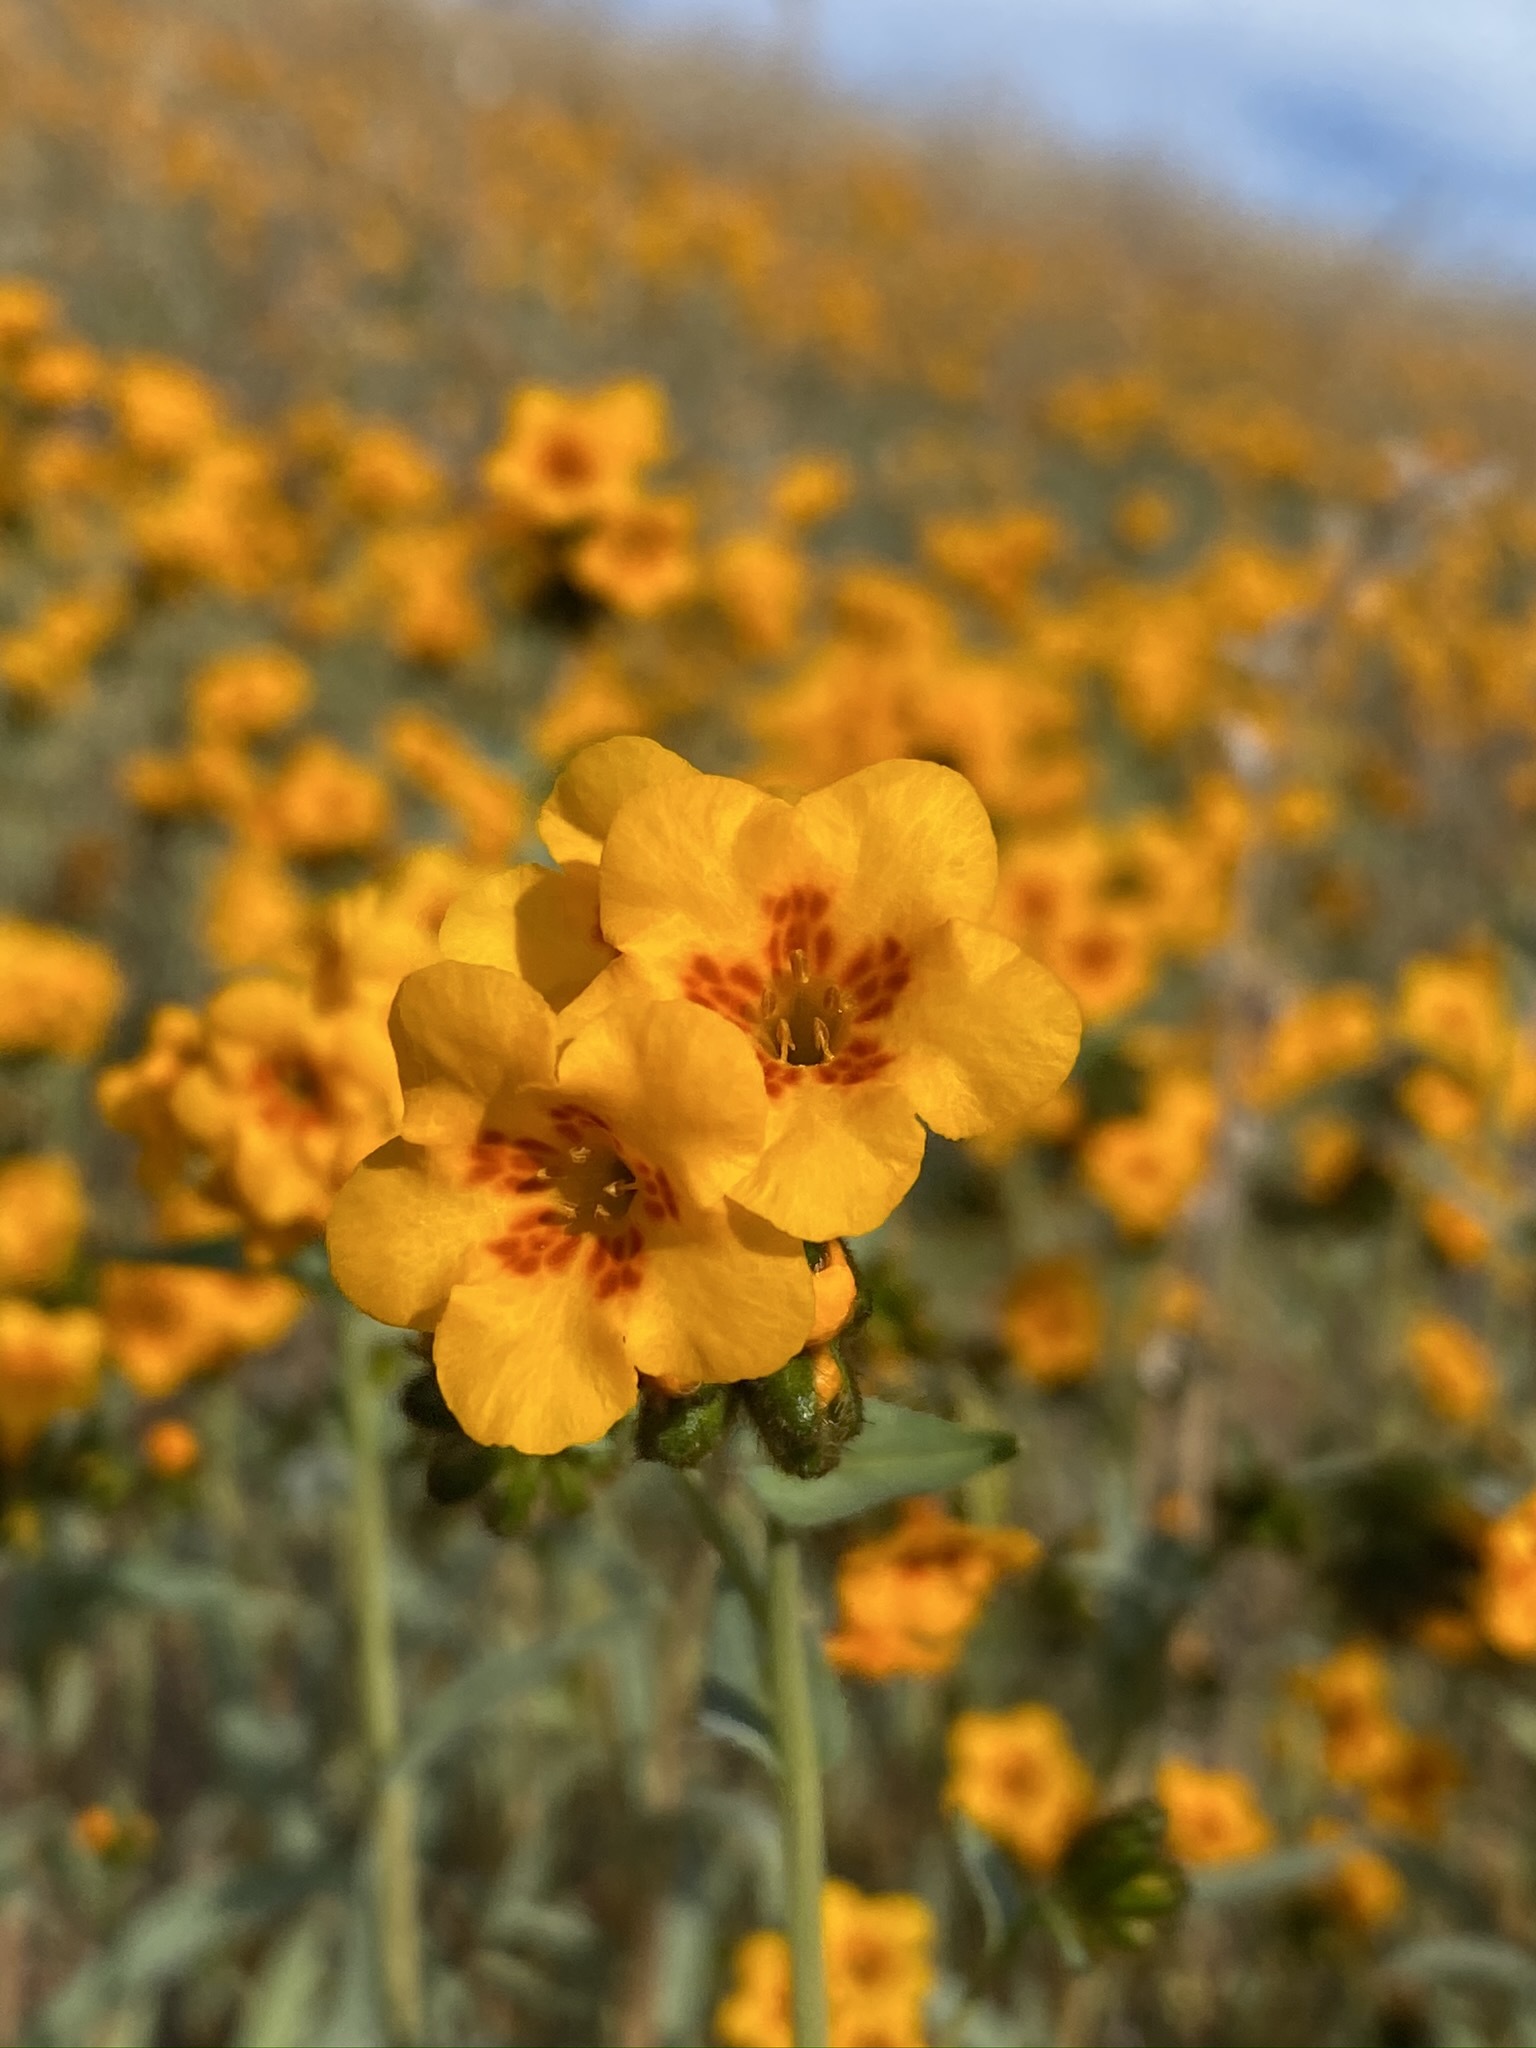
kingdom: Plantae
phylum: Tracheophyta
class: Magnoliopsida
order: Boraginales
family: Boraginaceae
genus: Amsinckia
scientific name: Amsinckia vernicosa
